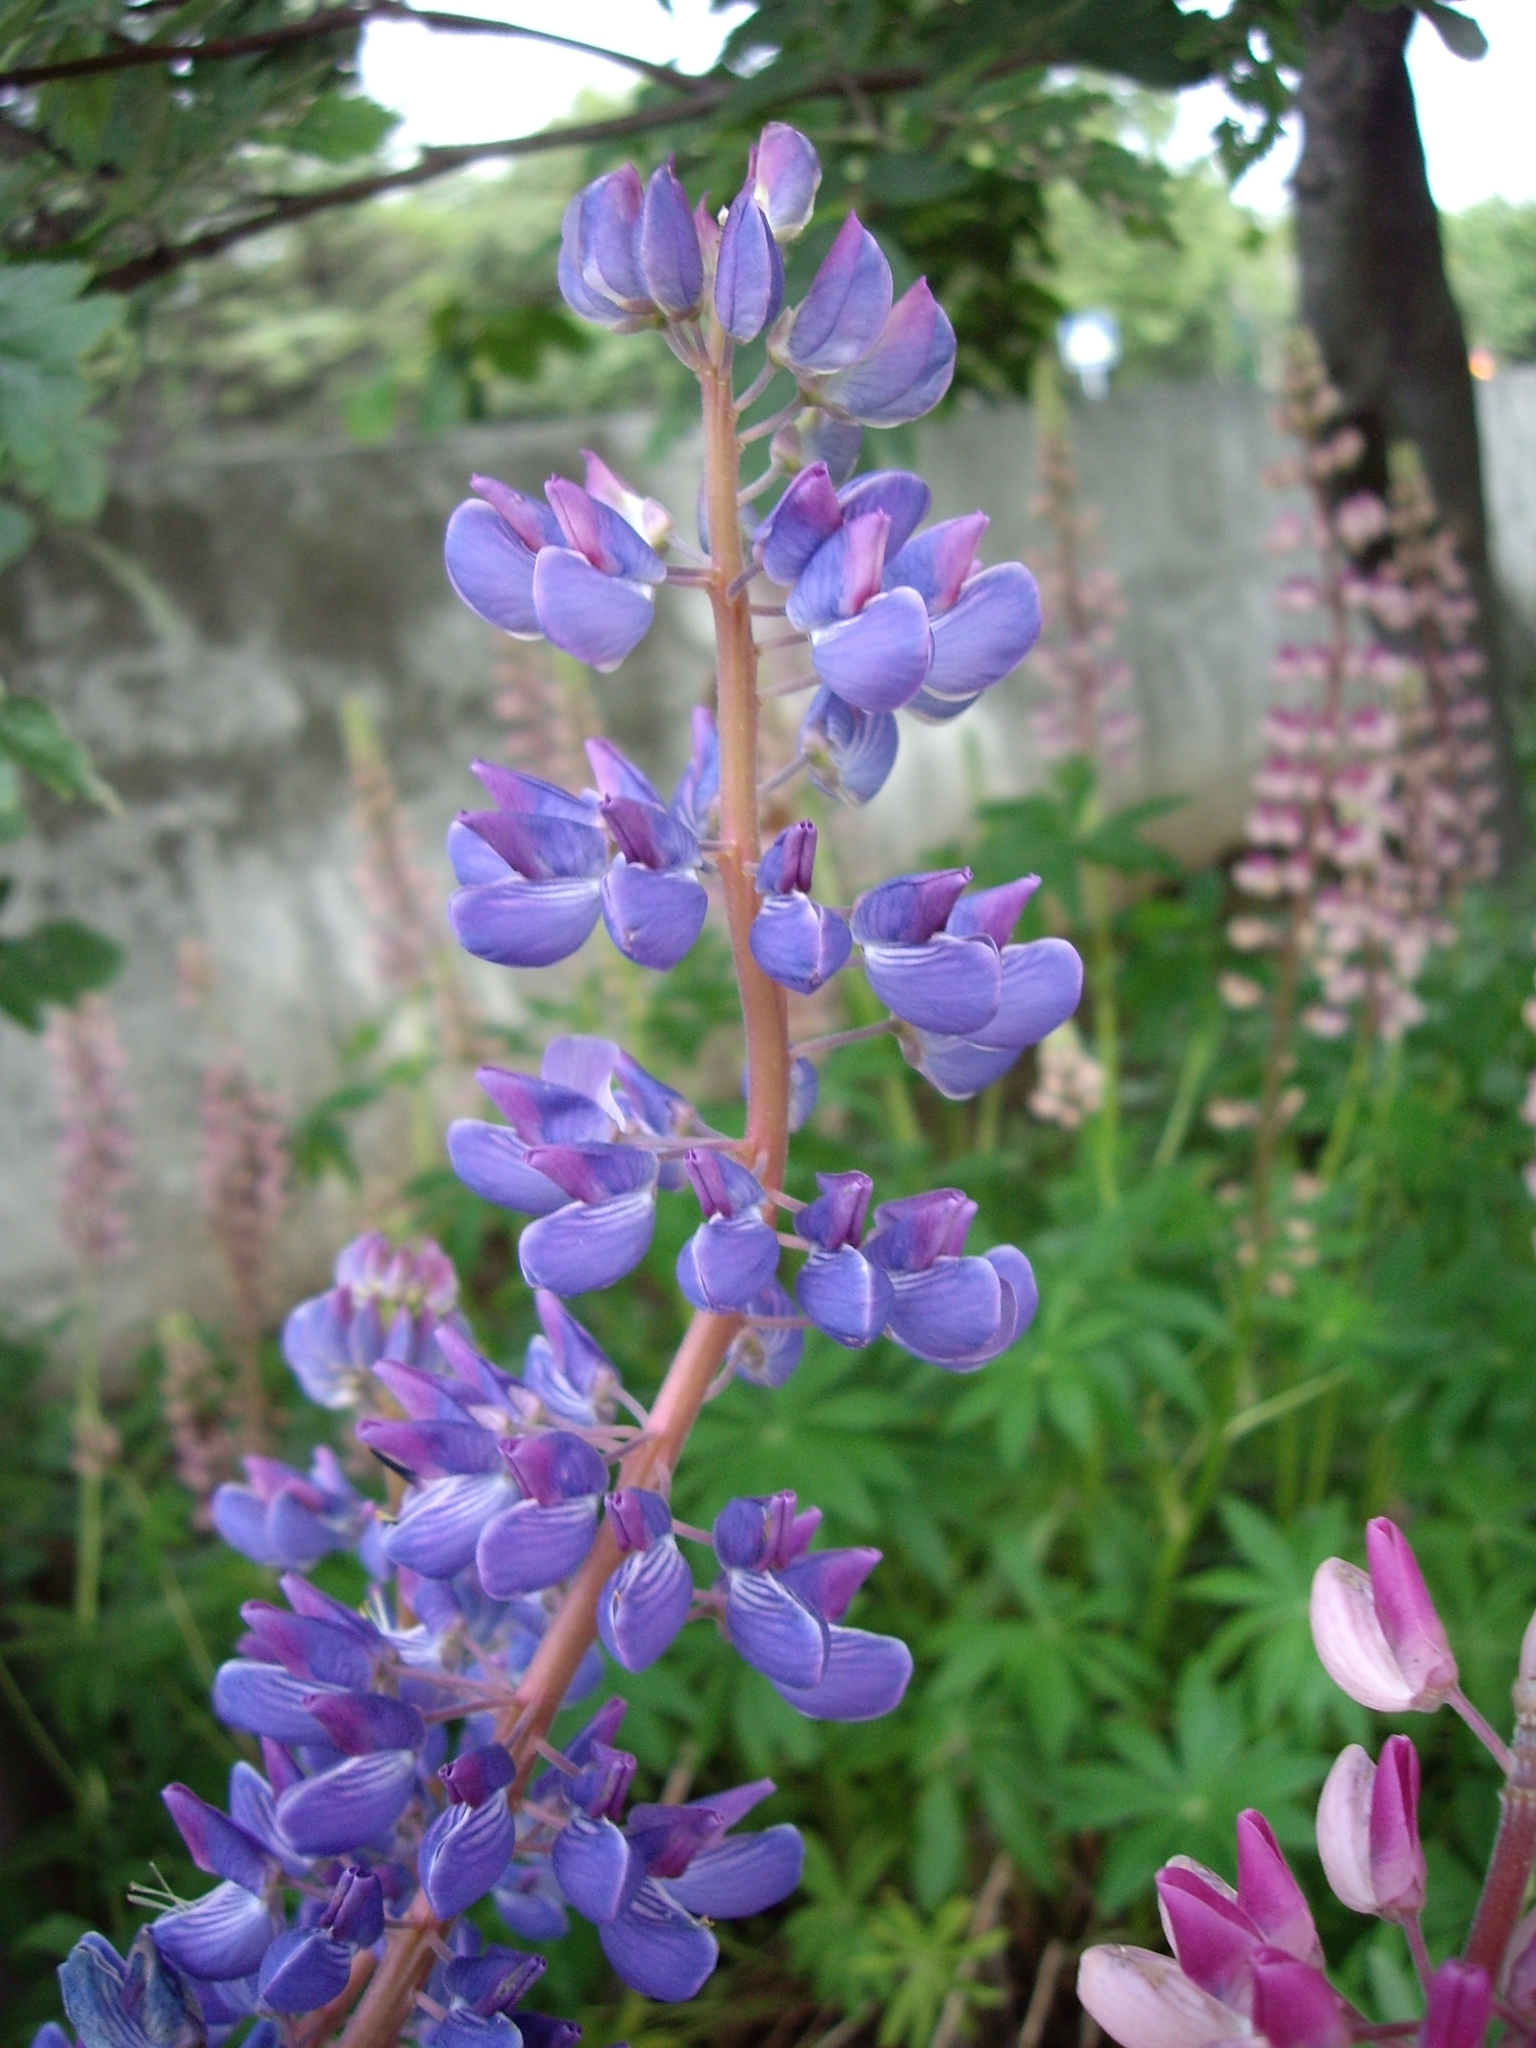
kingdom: Plantae
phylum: Tracheophyta
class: Magnoliopsida
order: Fabales
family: Fabaceae
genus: Lupinus
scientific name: Lupinus nootkatensis
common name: Nootka lupine
